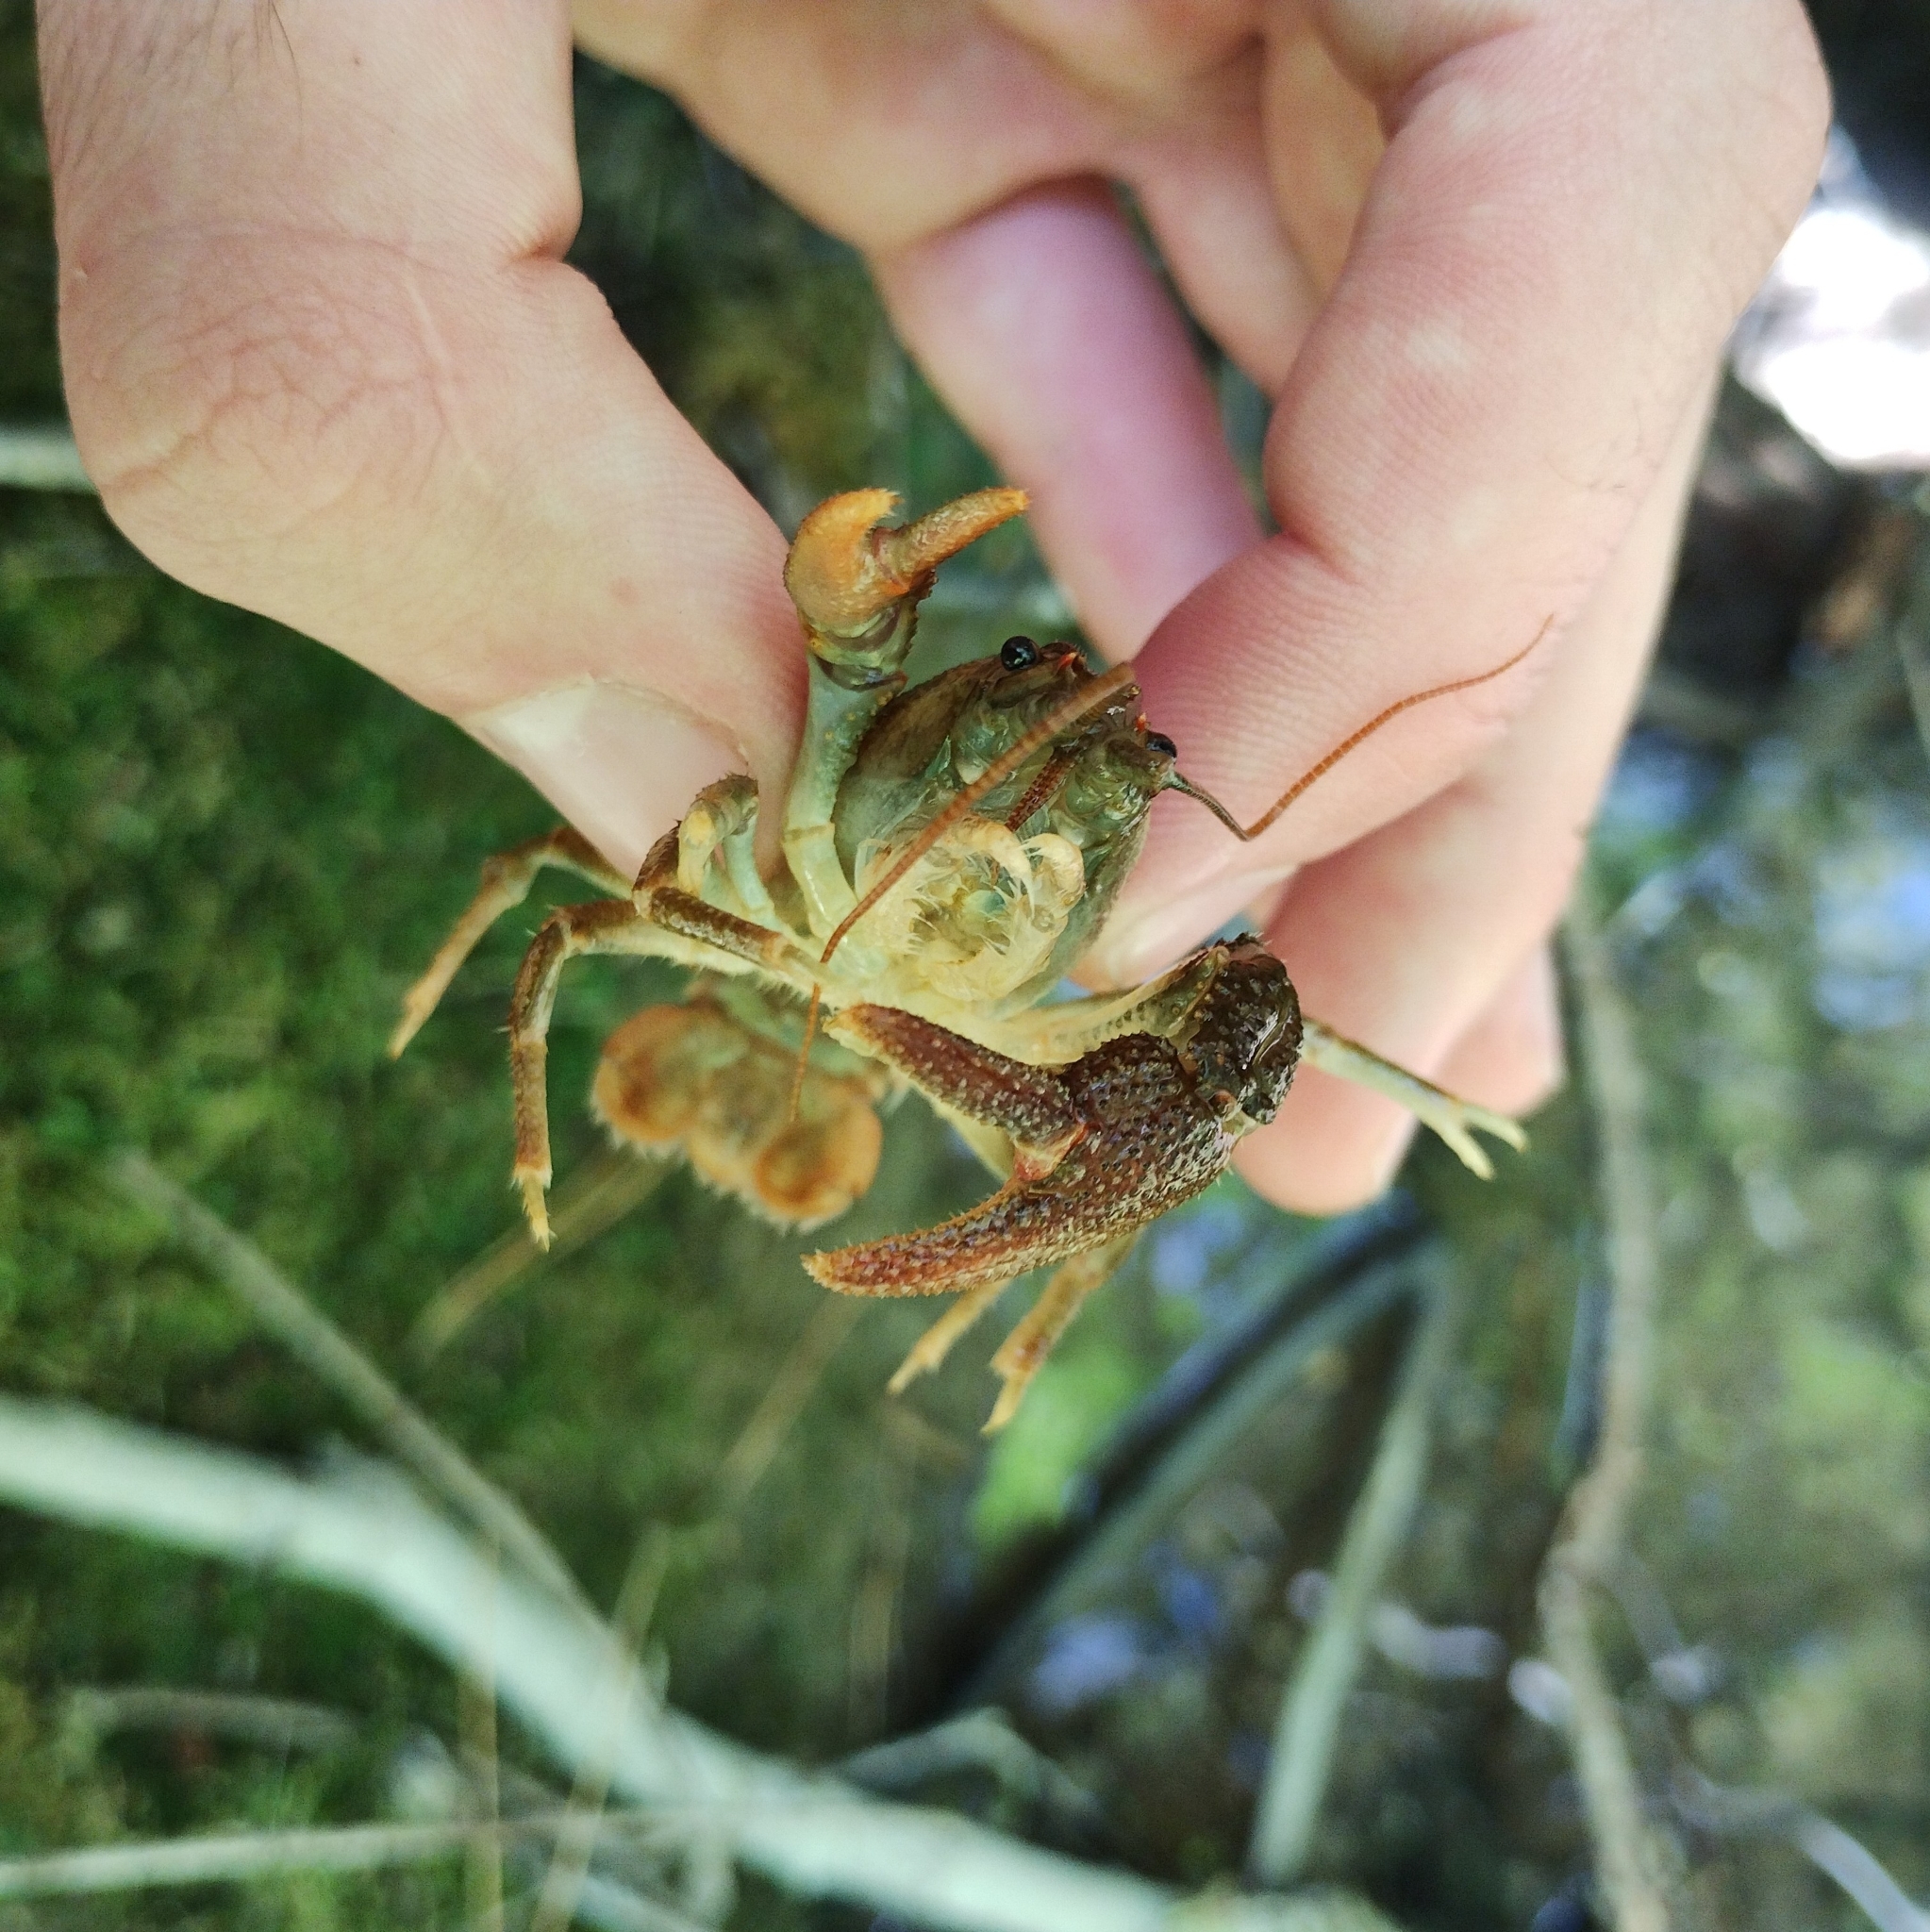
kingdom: Animalia
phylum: Arthropoda
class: Malacostraca
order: Decapoda
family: Astacidae
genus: Austropotamobius
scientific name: Austropotamobius torrentium
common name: Stone crayfish
